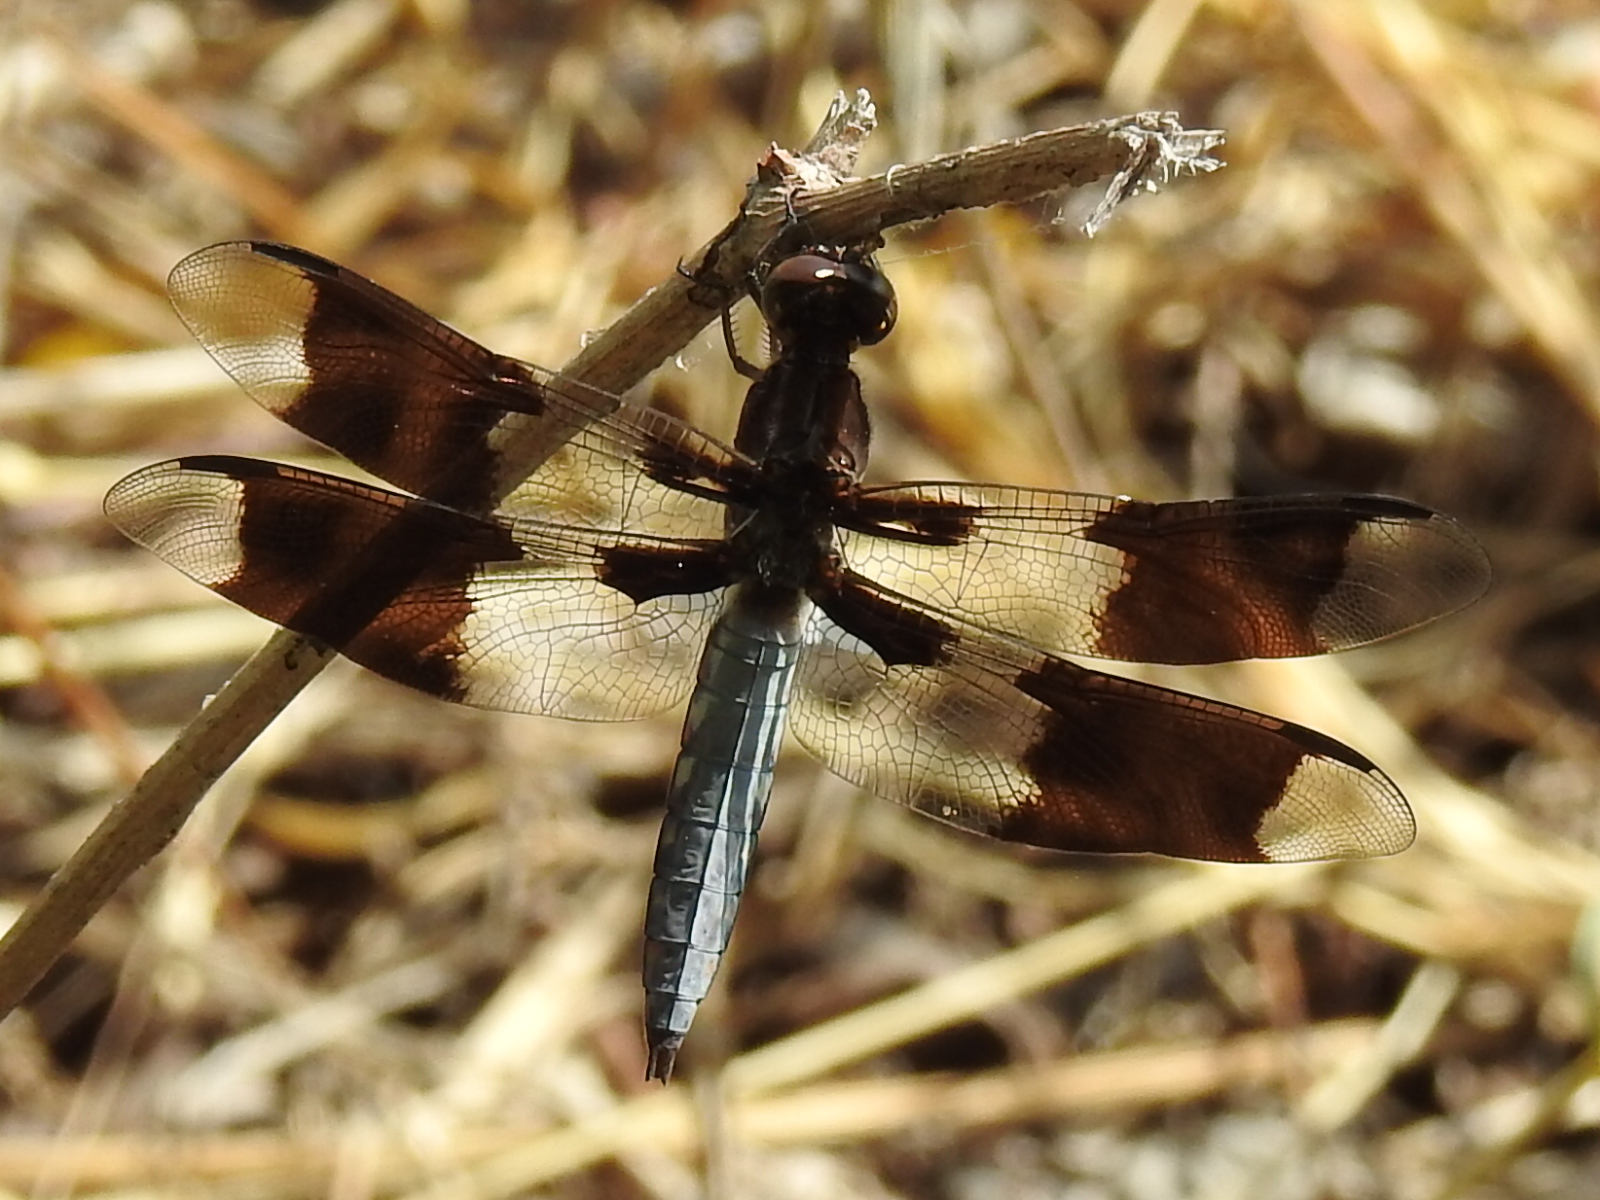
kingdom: Animalia
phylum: Arthropoda
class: Insecta
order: Odonata
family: Libellulidae
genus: Plathemis
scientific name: Plathemis lydia
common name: Common whitetail
